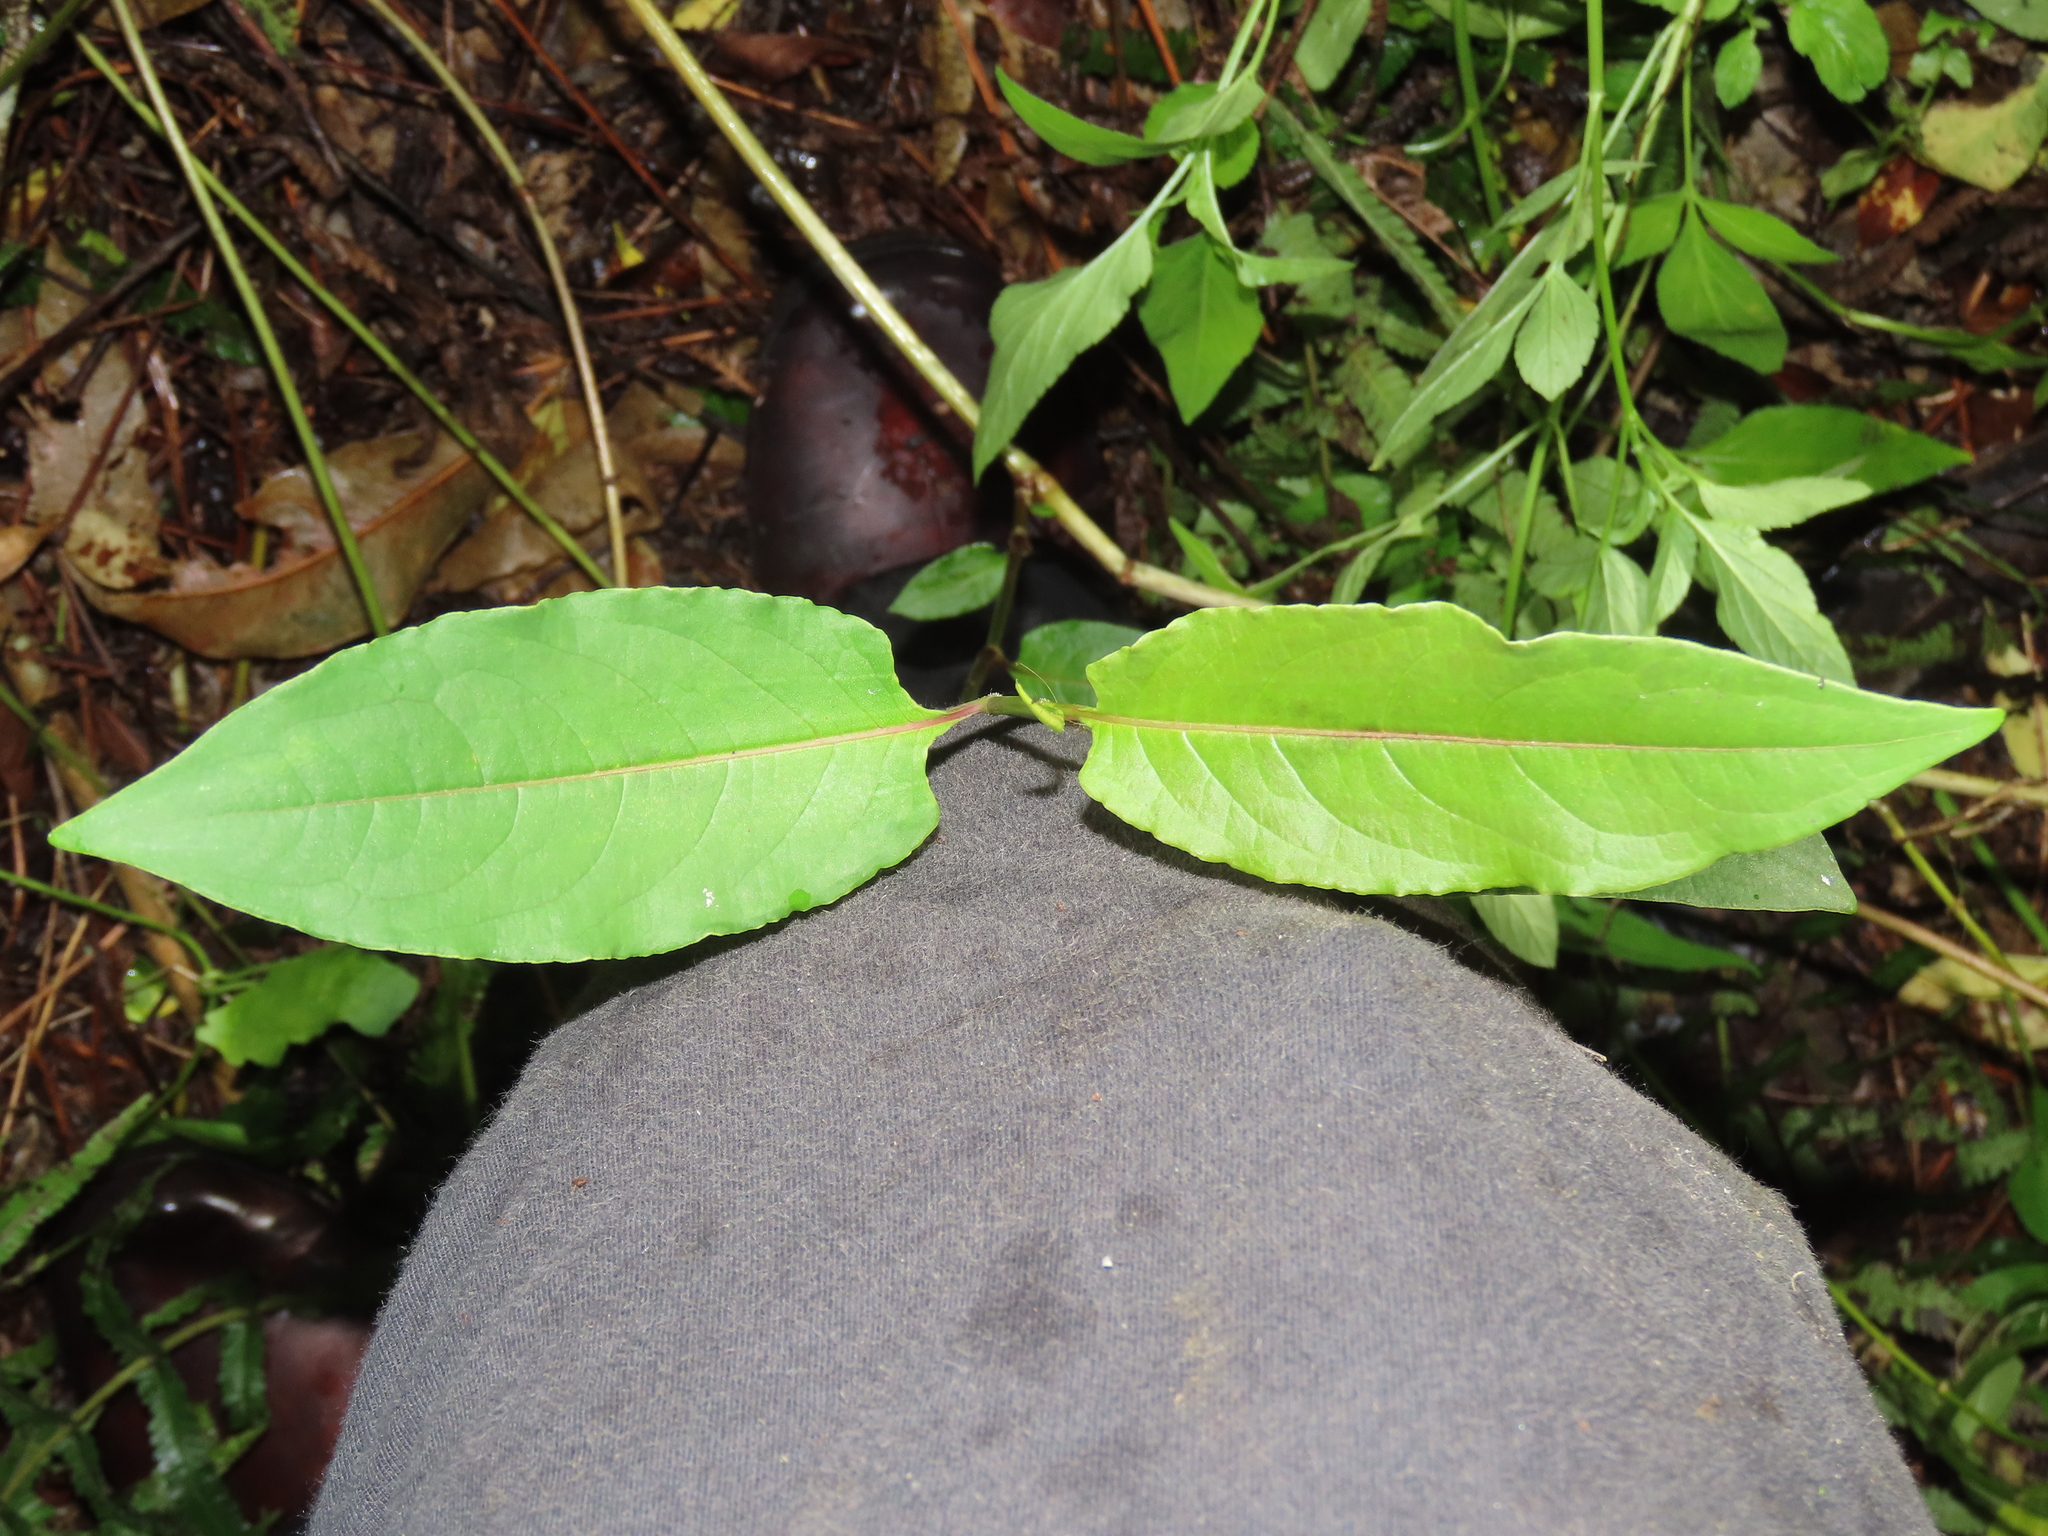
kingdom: Plantae
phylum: Tracheophyta
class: Magnoliopsida
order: Caryophyllales
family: Polygonaceae
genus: Persicaria
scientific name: Persicaria chinensis
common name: Chinese knotweed
